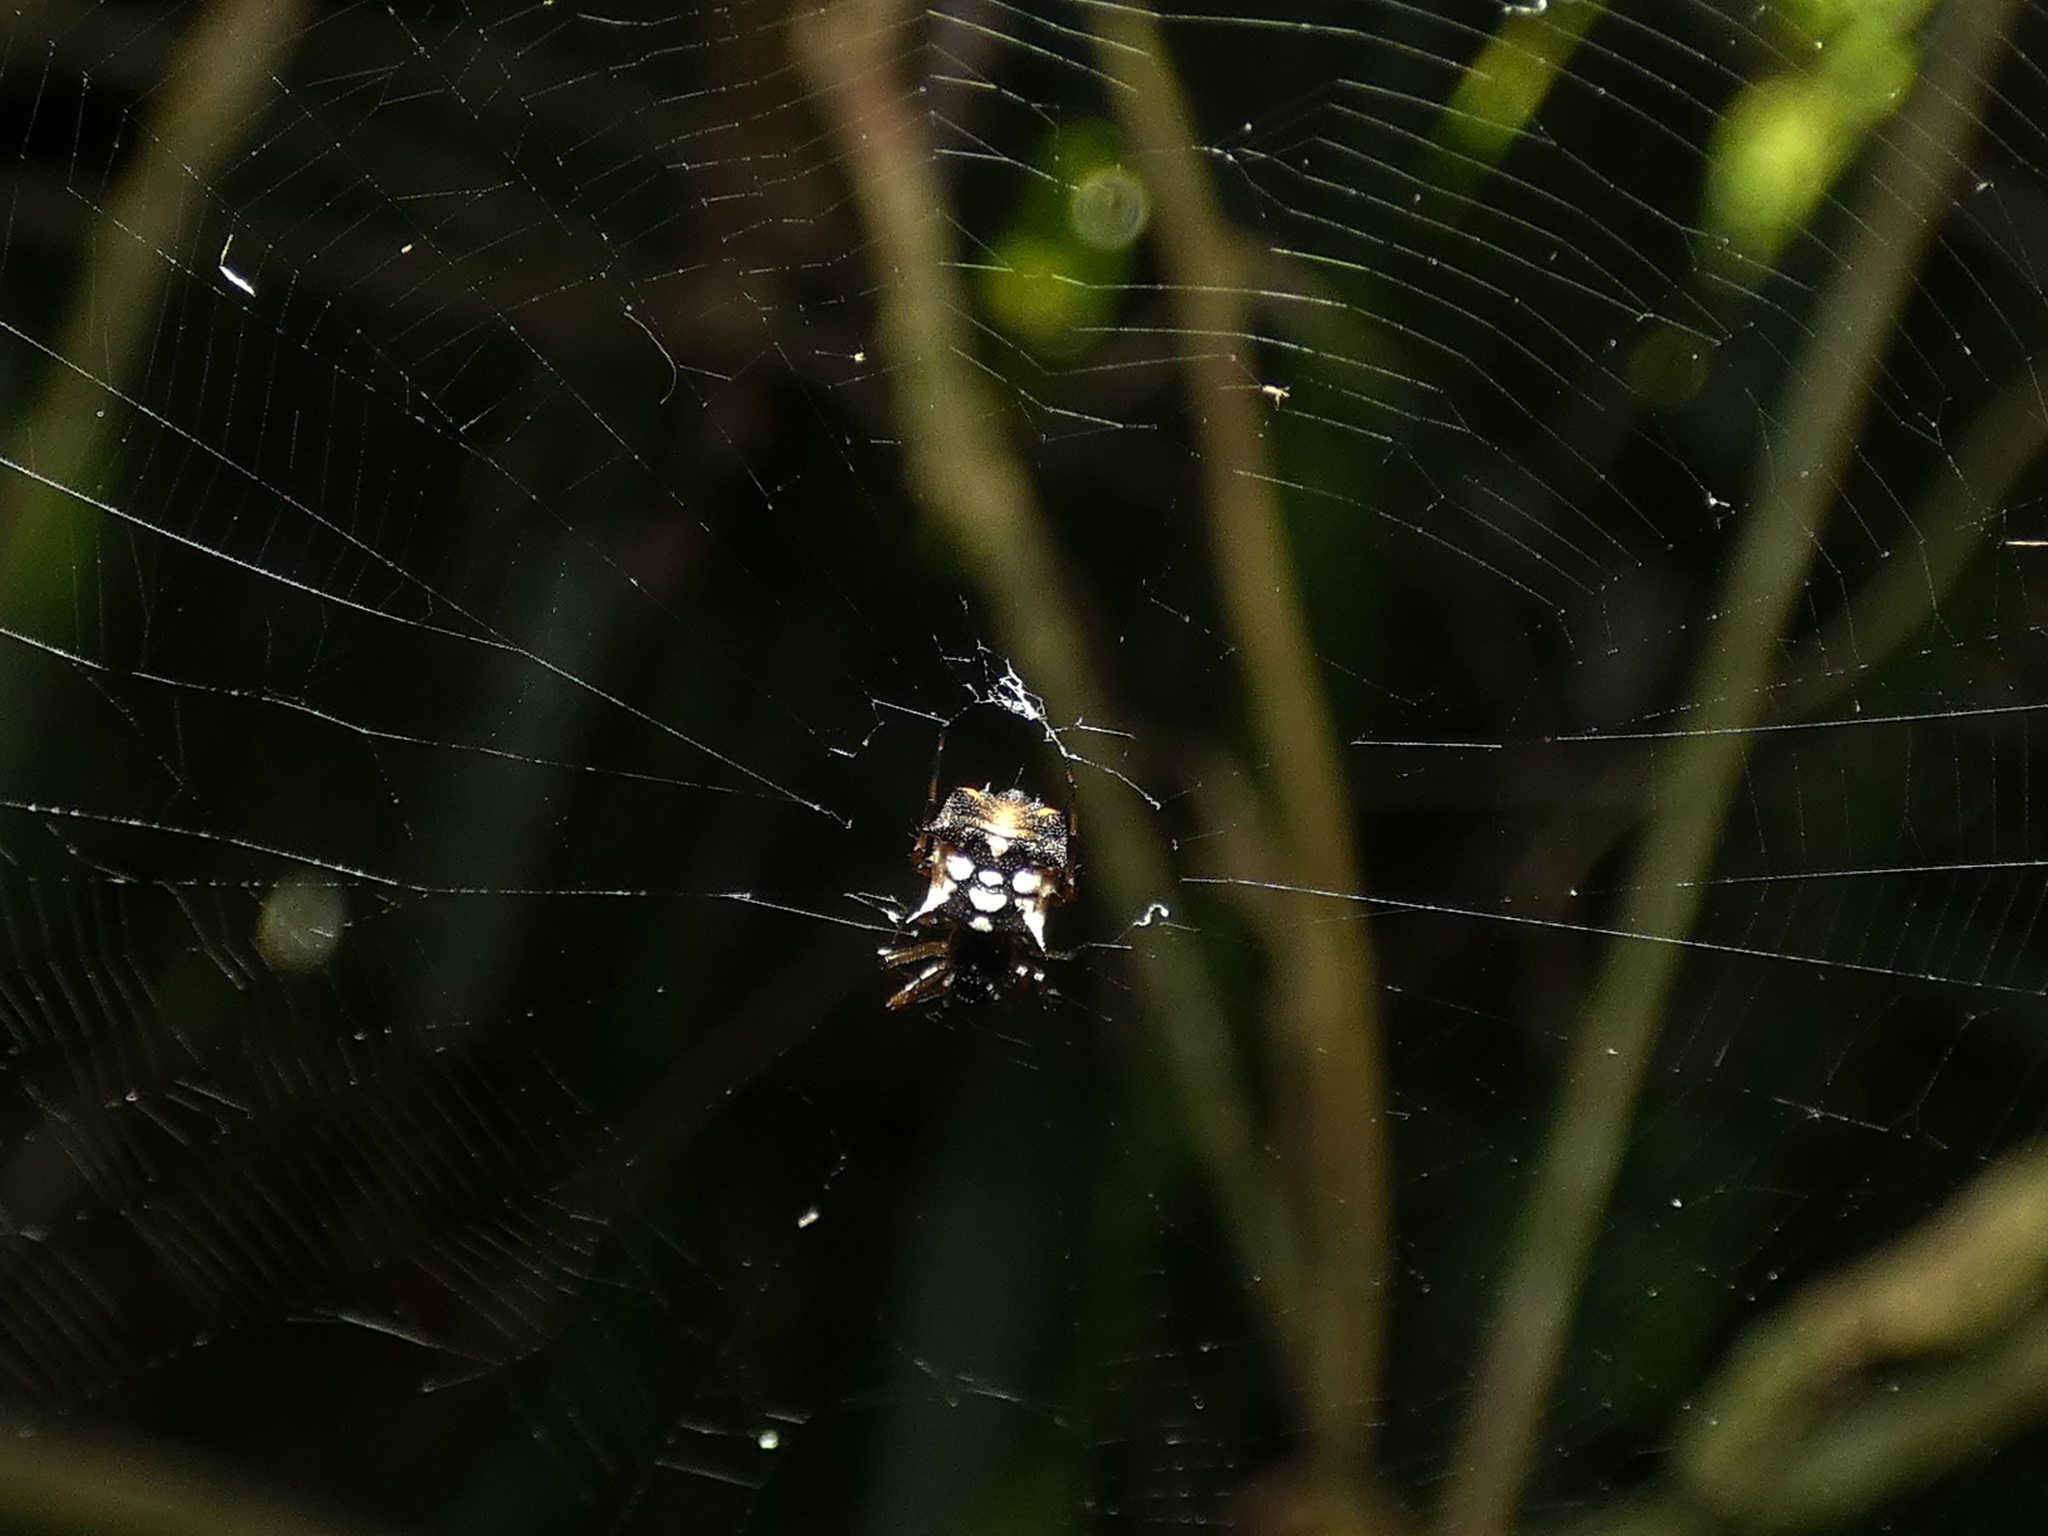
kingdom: Animalia
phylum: Arthropoda
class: Arachnida
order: Araneae
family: Araneidae
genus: Micrathena
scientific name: Micrathena picta
